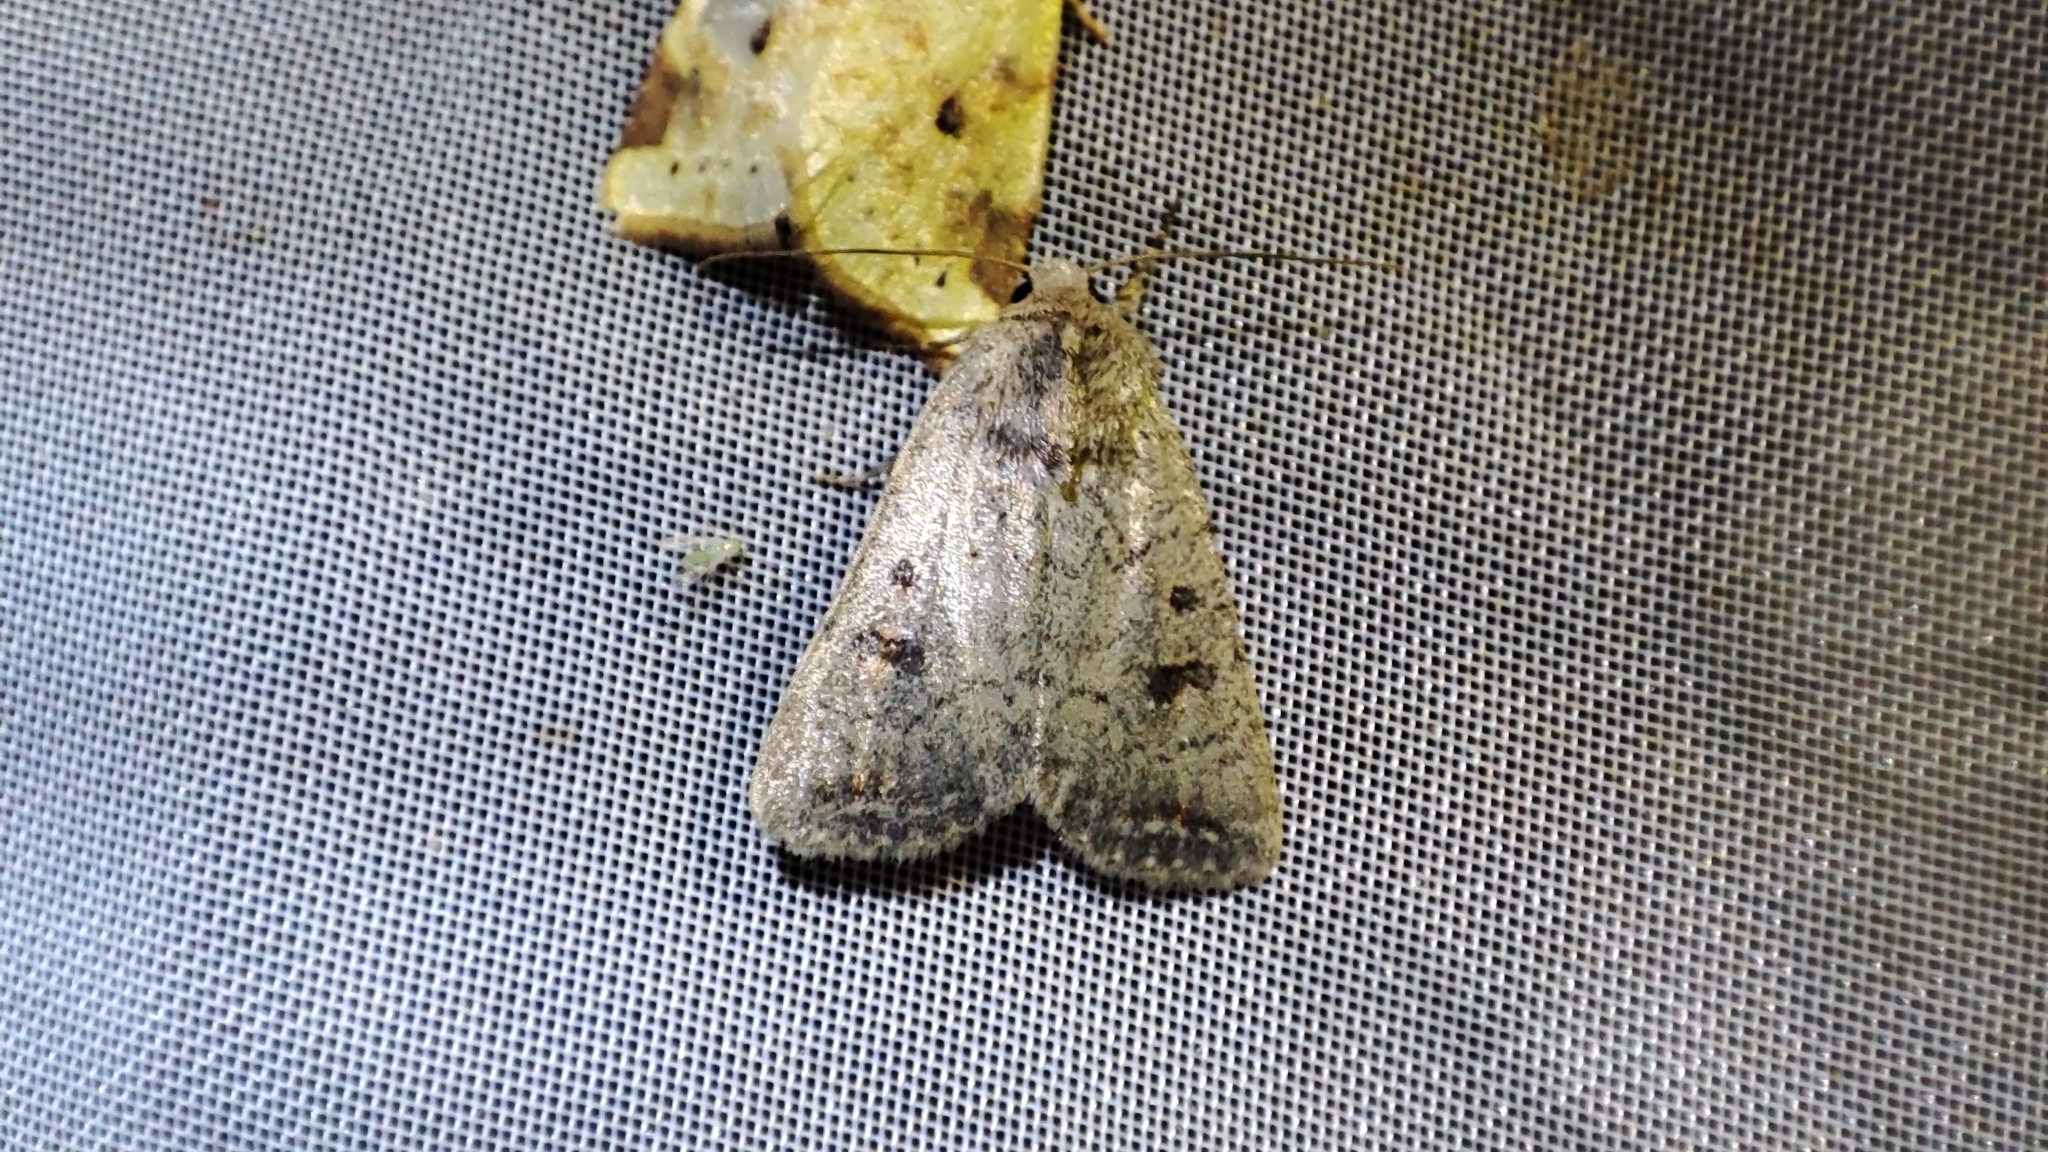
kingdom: Animalia
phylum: Arthropoda
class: Insecta
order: Lepidoptera
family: Noctuidae
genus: Caradrina
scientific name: Caradrina terrea
